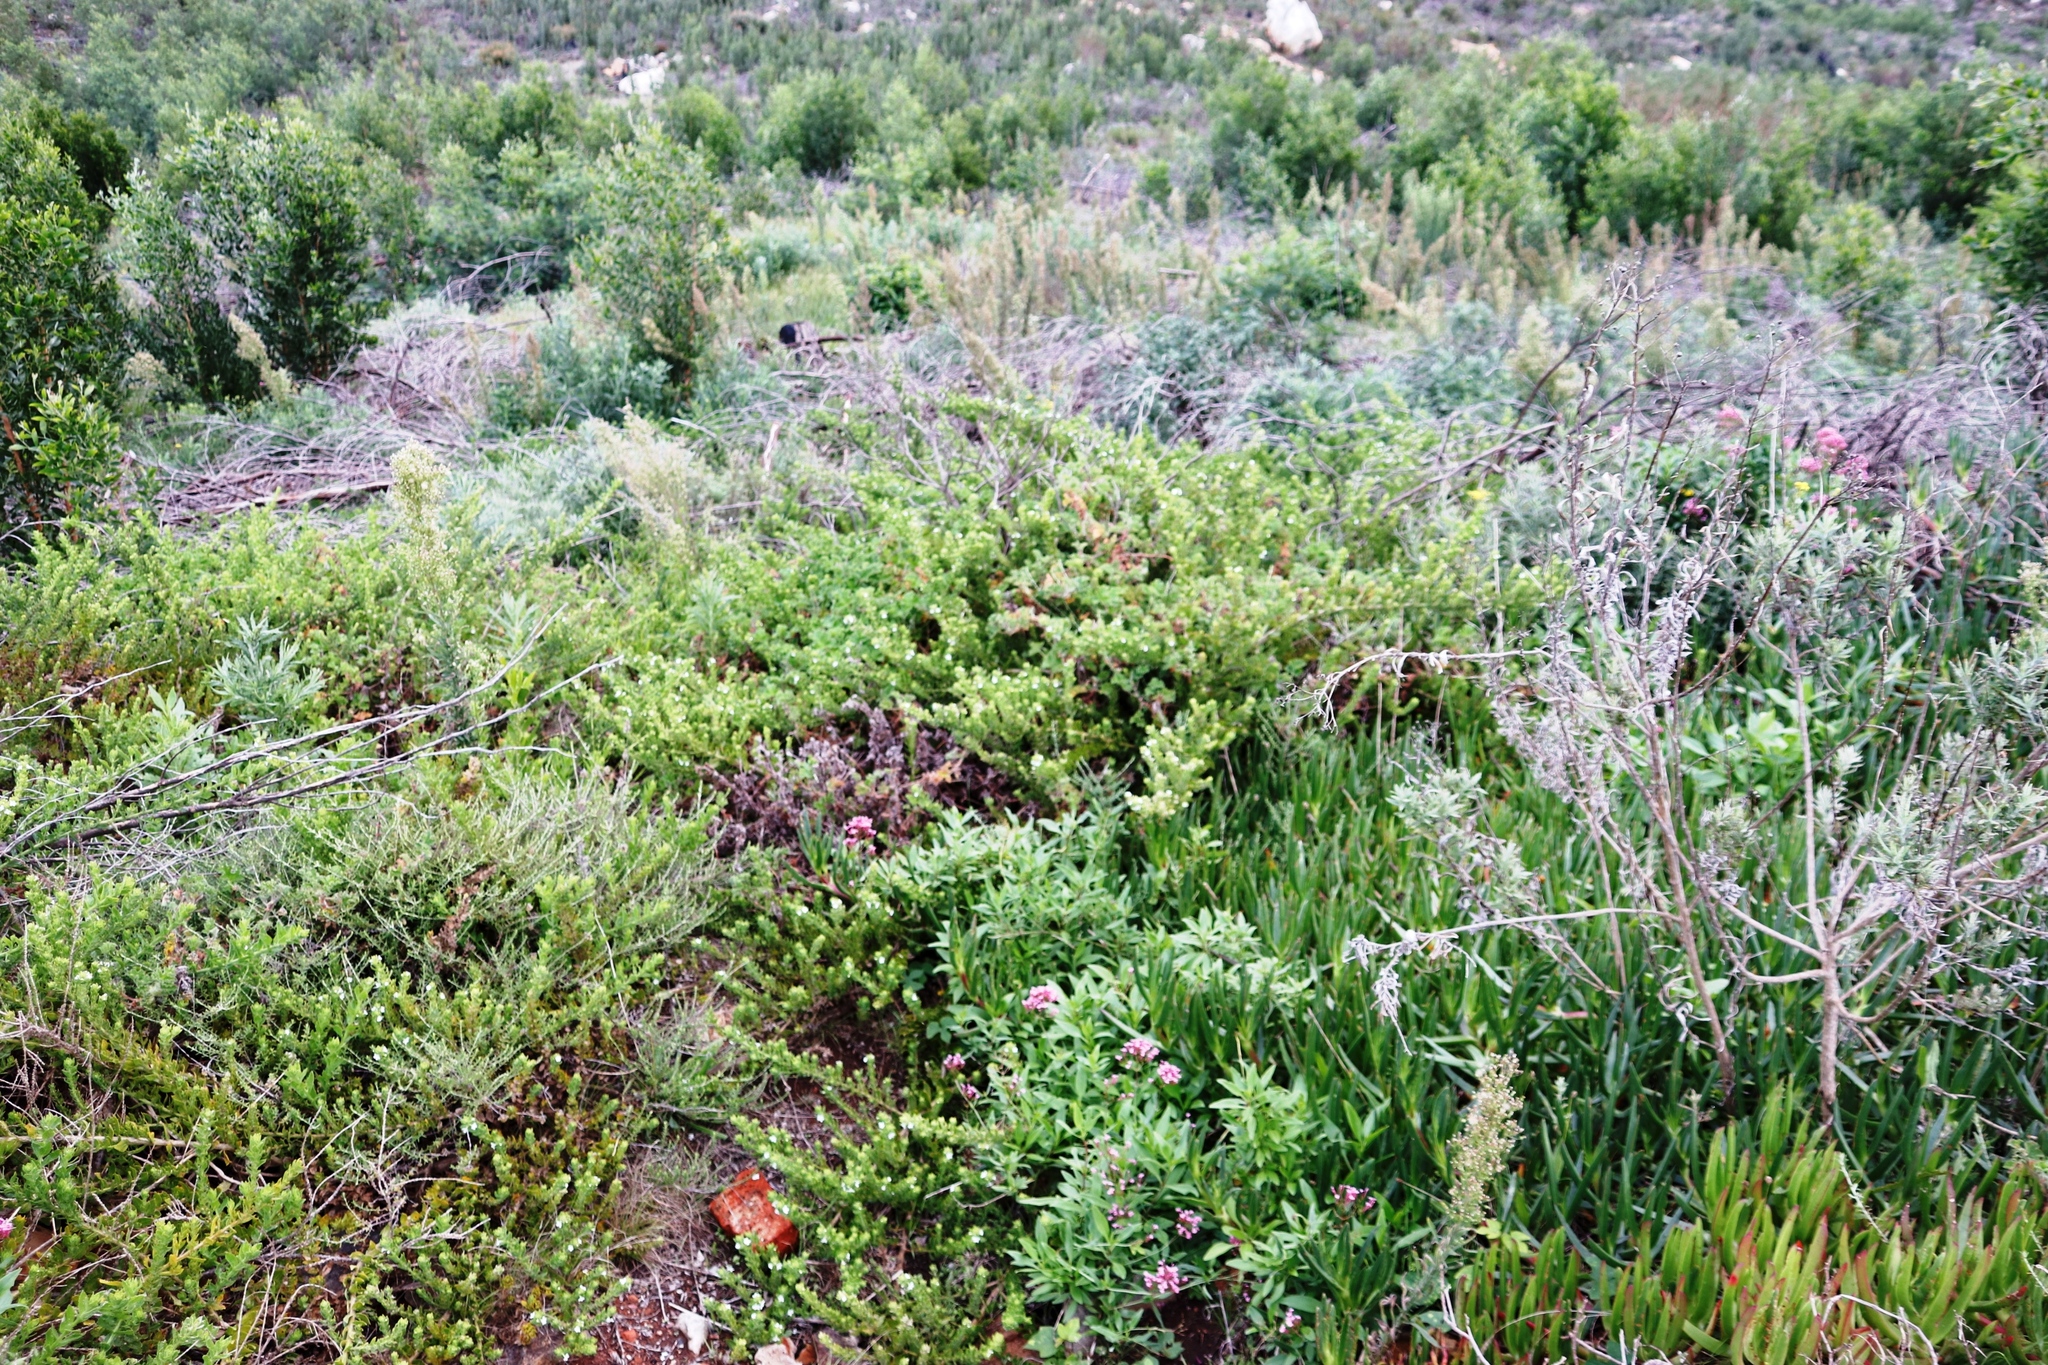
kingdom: Plantae
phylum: Tracheophyta
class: Magnoliopsida
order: Lamiales
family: Scrophulariaceae
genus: Oftia
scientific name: Oftia africana
